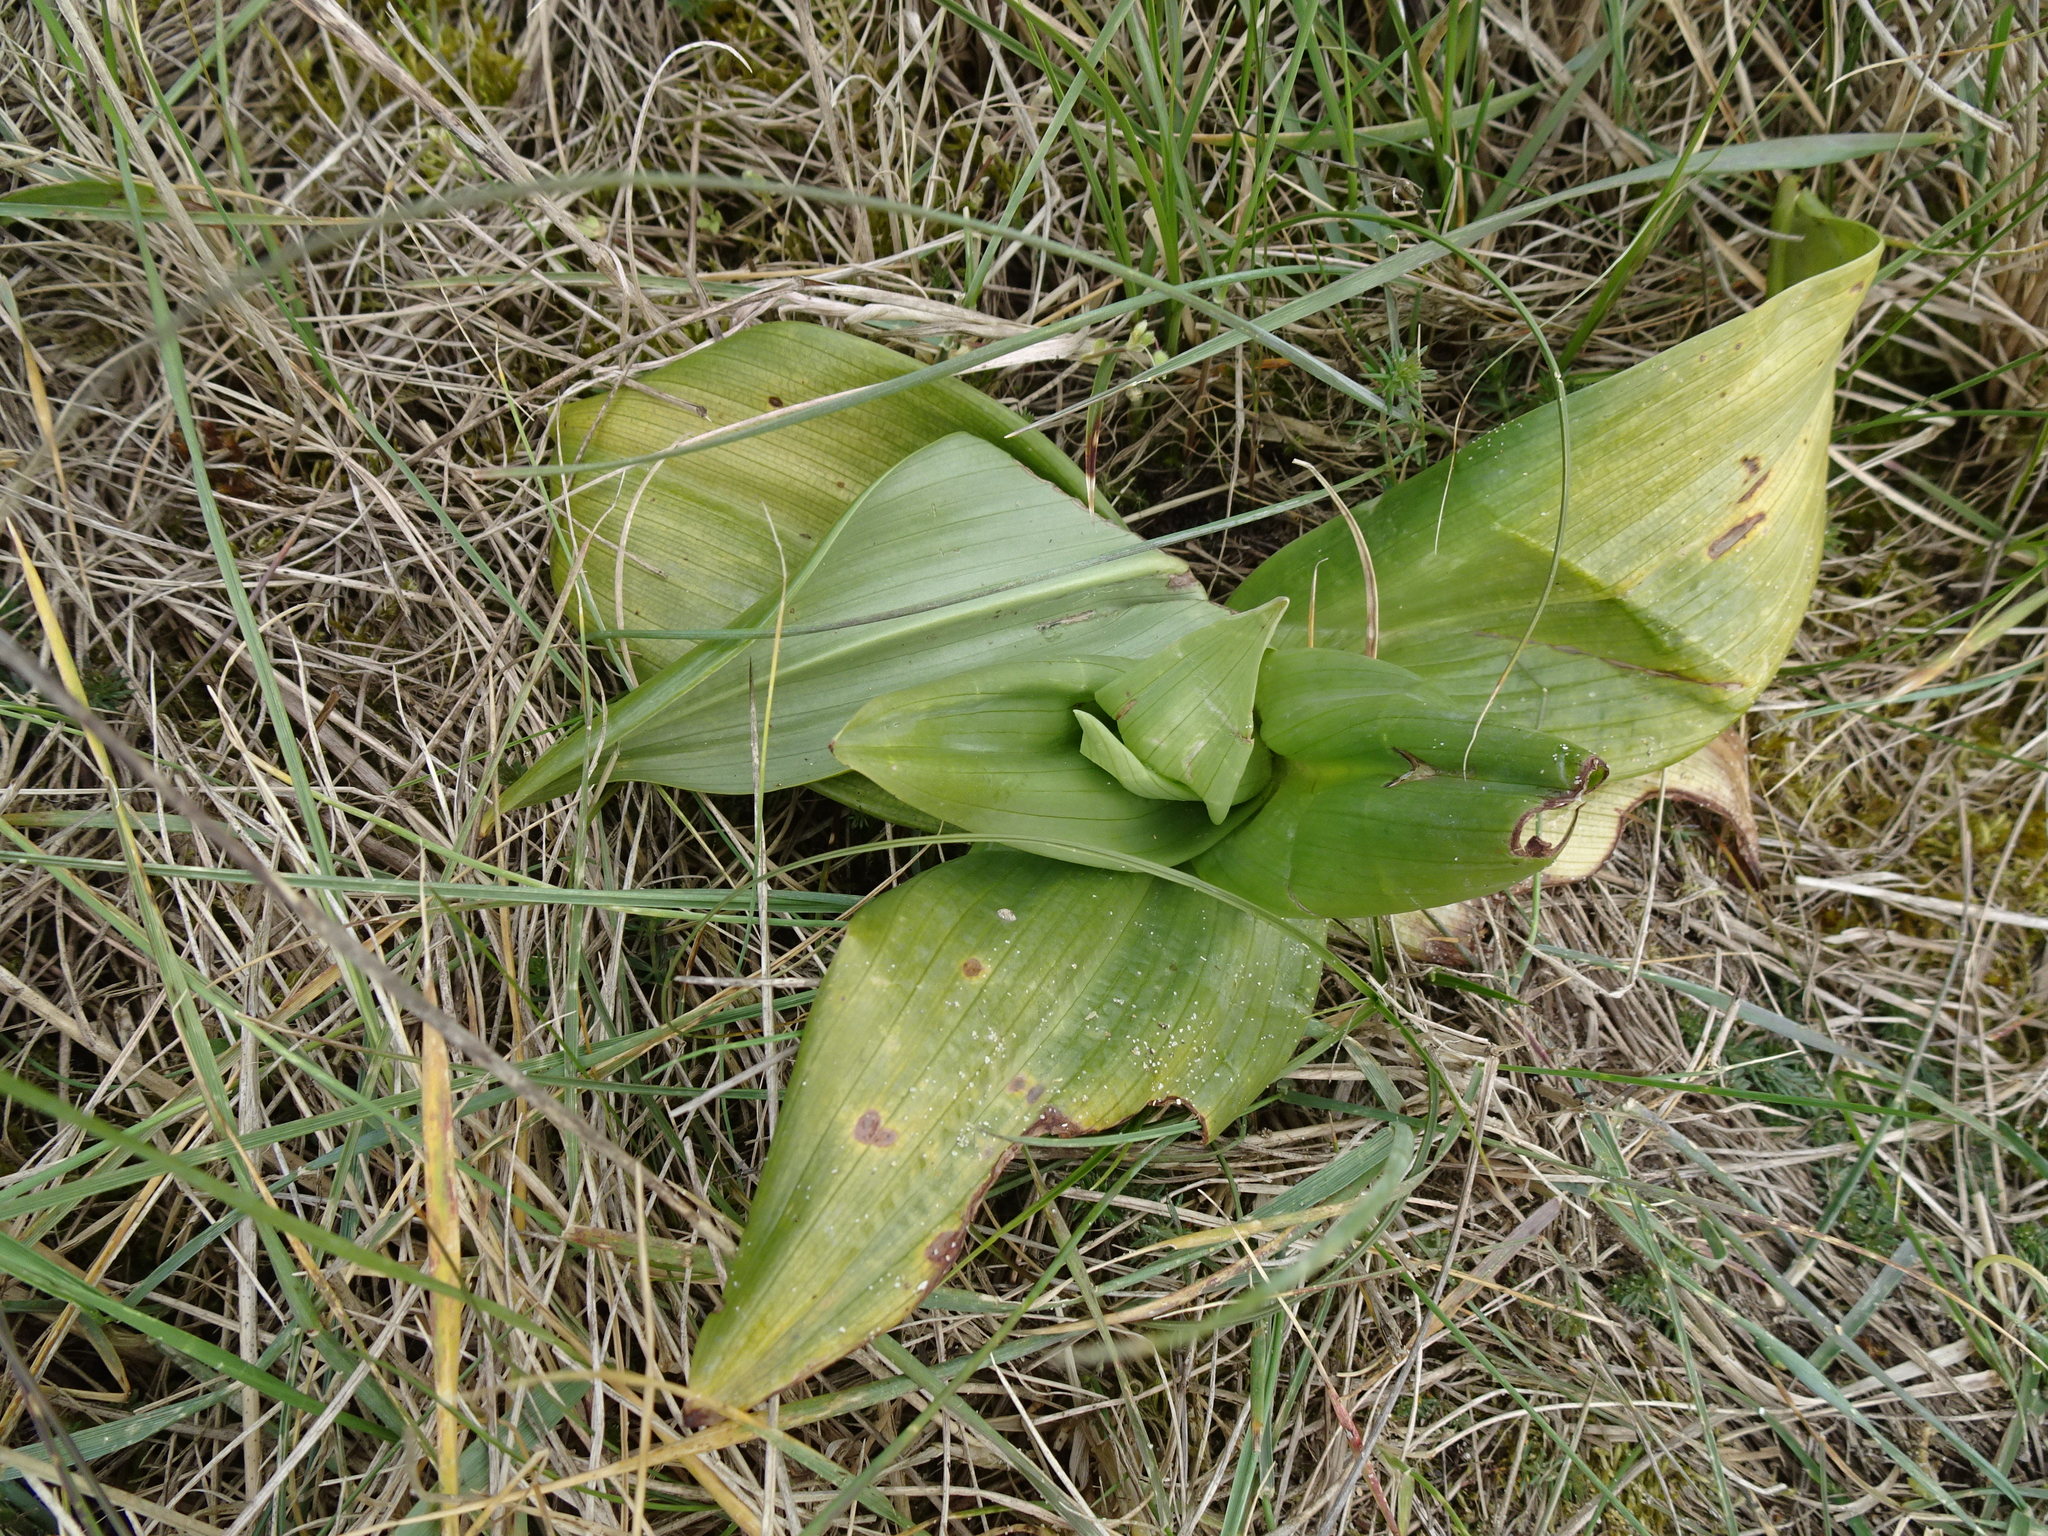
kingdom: Plantae
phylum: Tracheophyta
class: Liliopsida
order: Asparagales
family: Orchidaceae
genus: Himantoglossum
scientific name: Himantoglossum hircinum
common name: Lizard orchid
